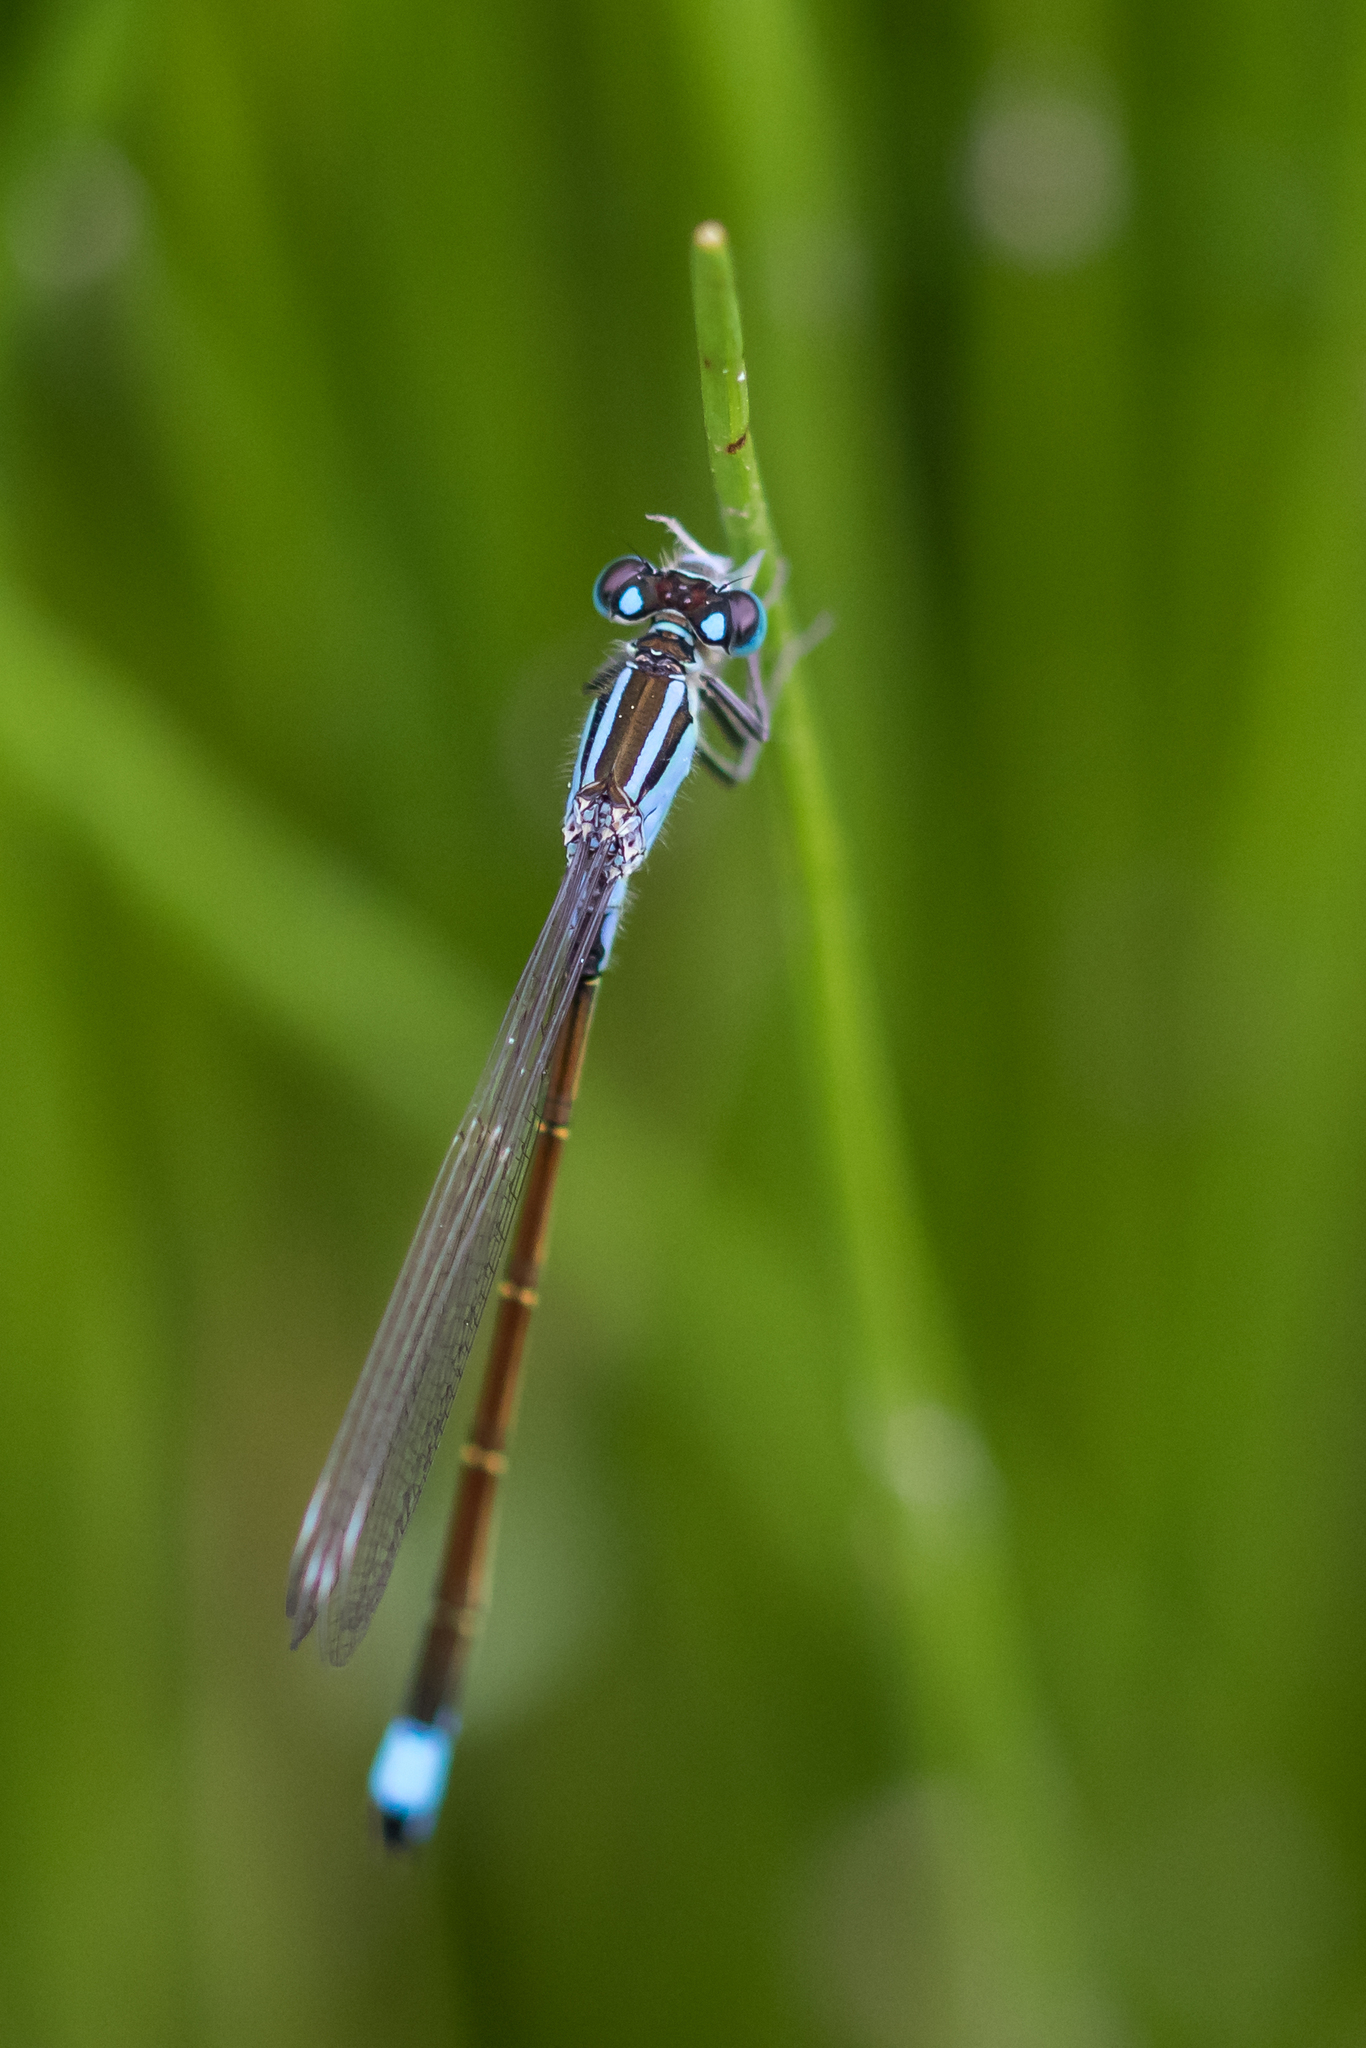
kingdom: Animalia
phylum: Arthropoda
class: Insecta
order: Odonata
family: Coenagrionidae
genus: Ischnura
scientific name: Ischnura elegans
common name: Blue-tailed damselfly
